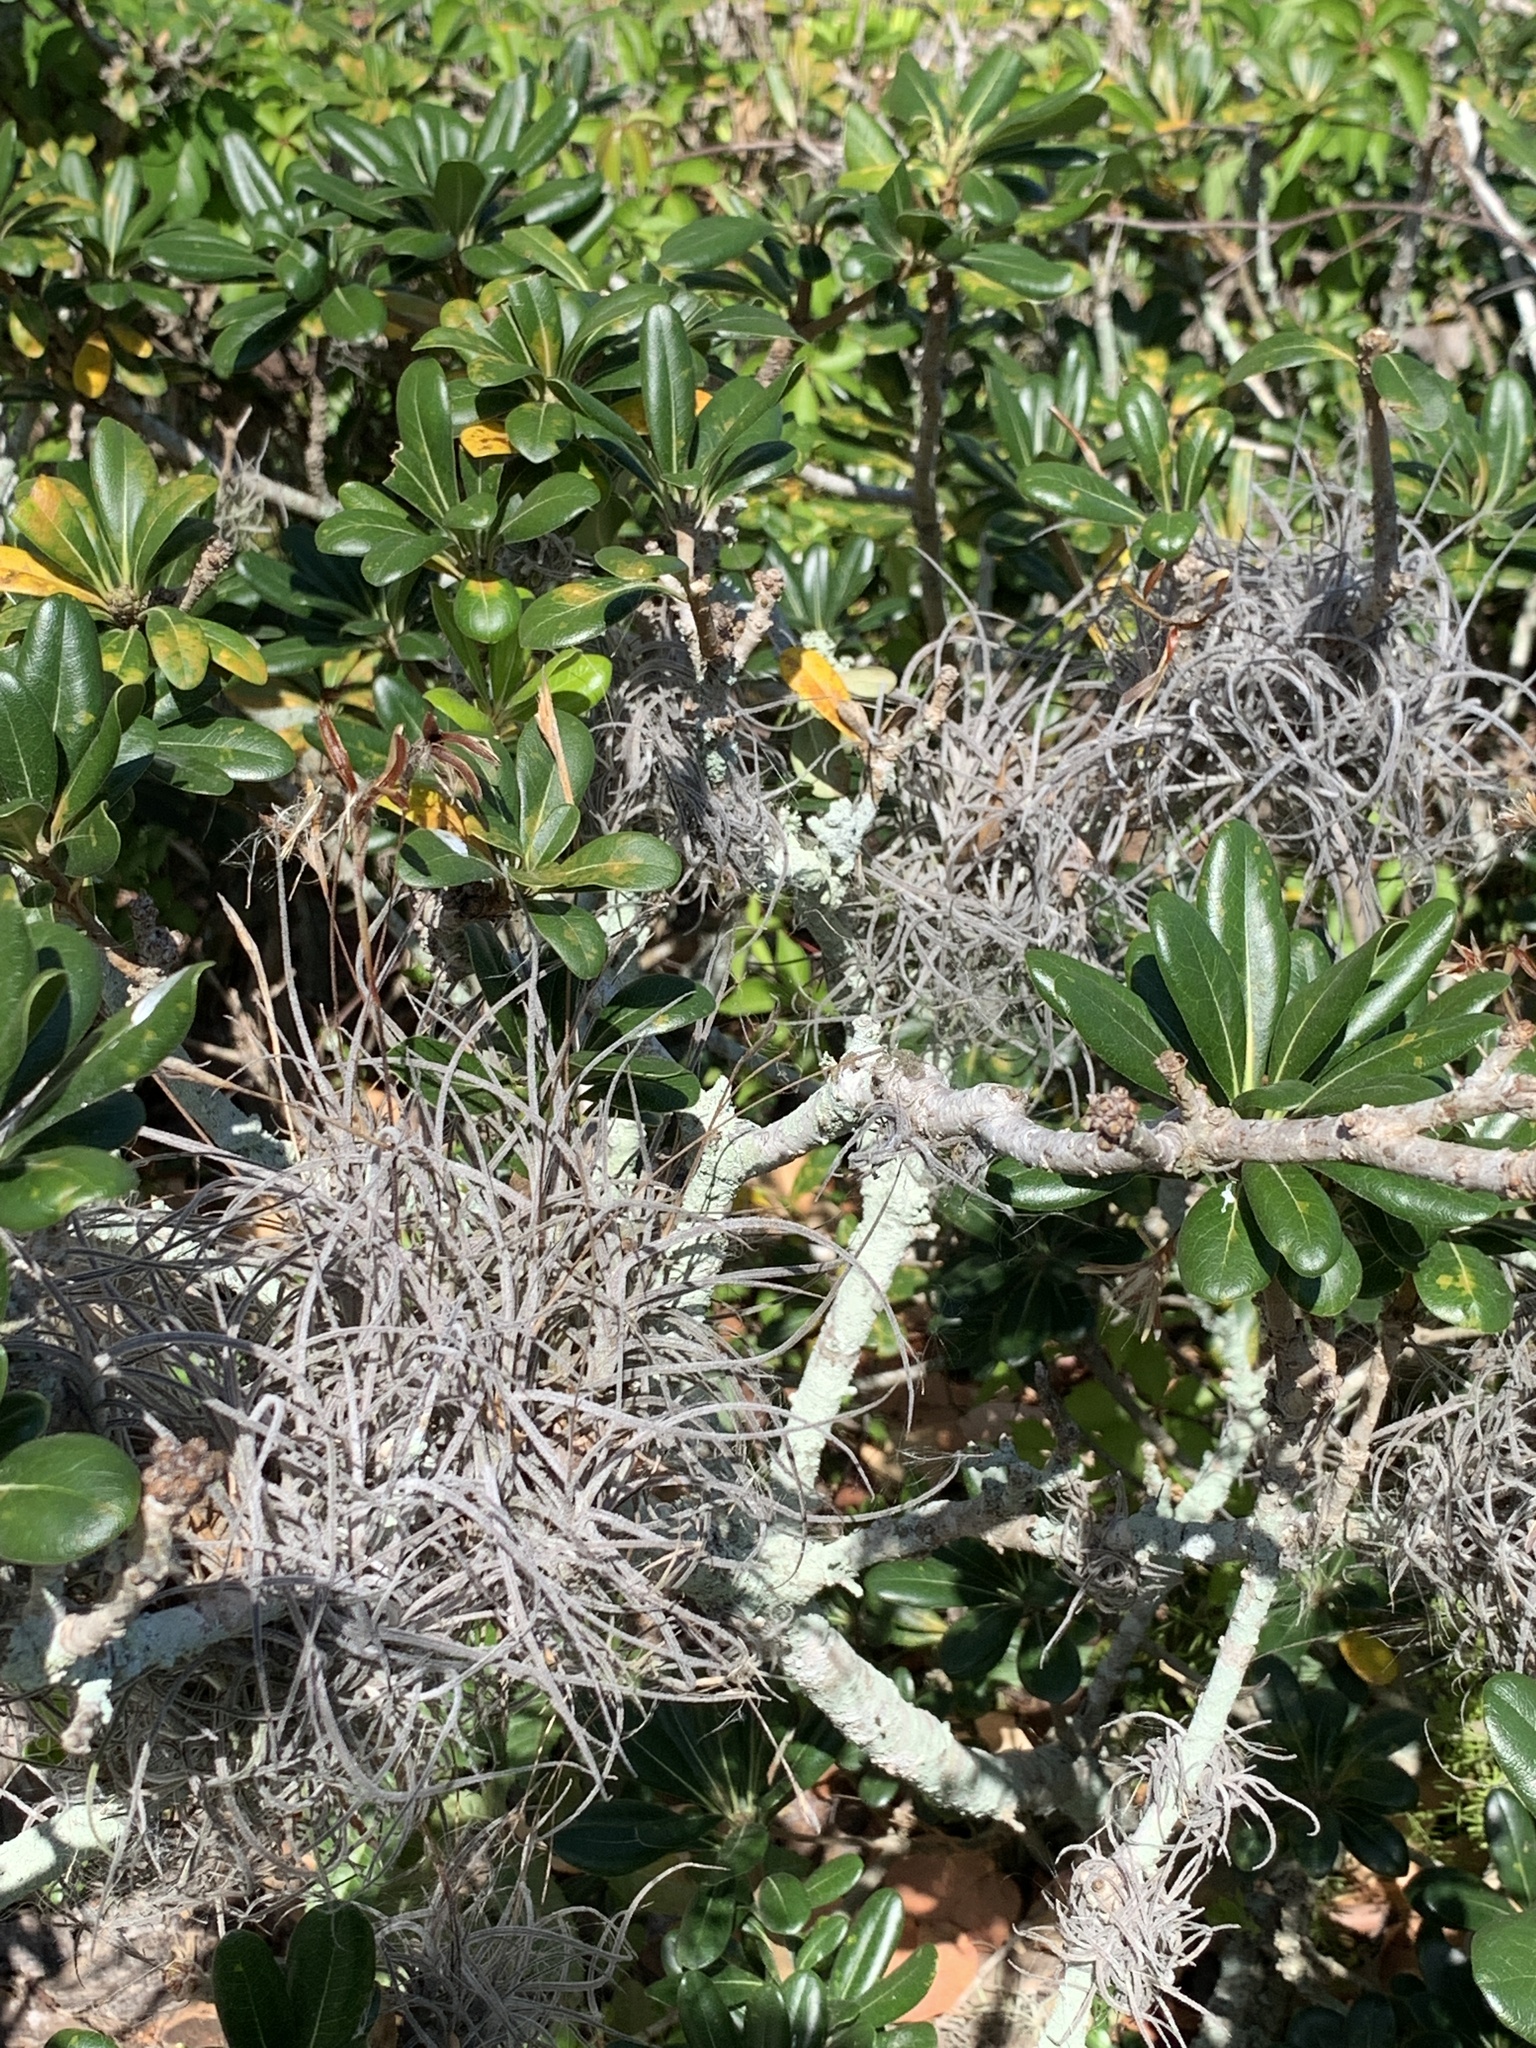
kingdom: Plantae
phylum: Tracheophyta
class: Liliopsida
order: Poales
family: Bromeliaceae
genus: Tillandsia
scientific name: Tillandsia recurvata
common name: Small ballmoss
